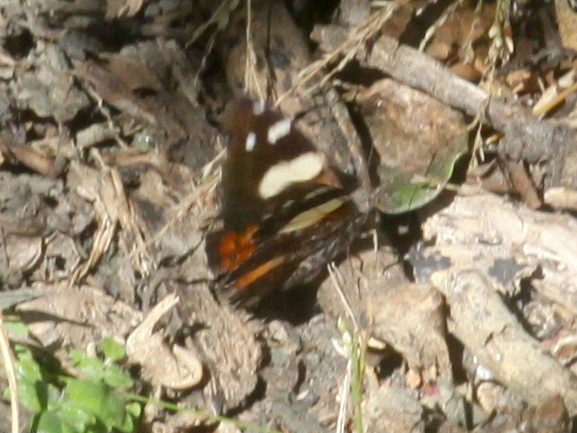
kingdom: Animalia
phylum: Arthropoda
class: Insecta
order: Lepidoptera
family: Nymphalidae
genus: Vanessa
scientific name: Vanessa itea
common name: Yellow admiral
